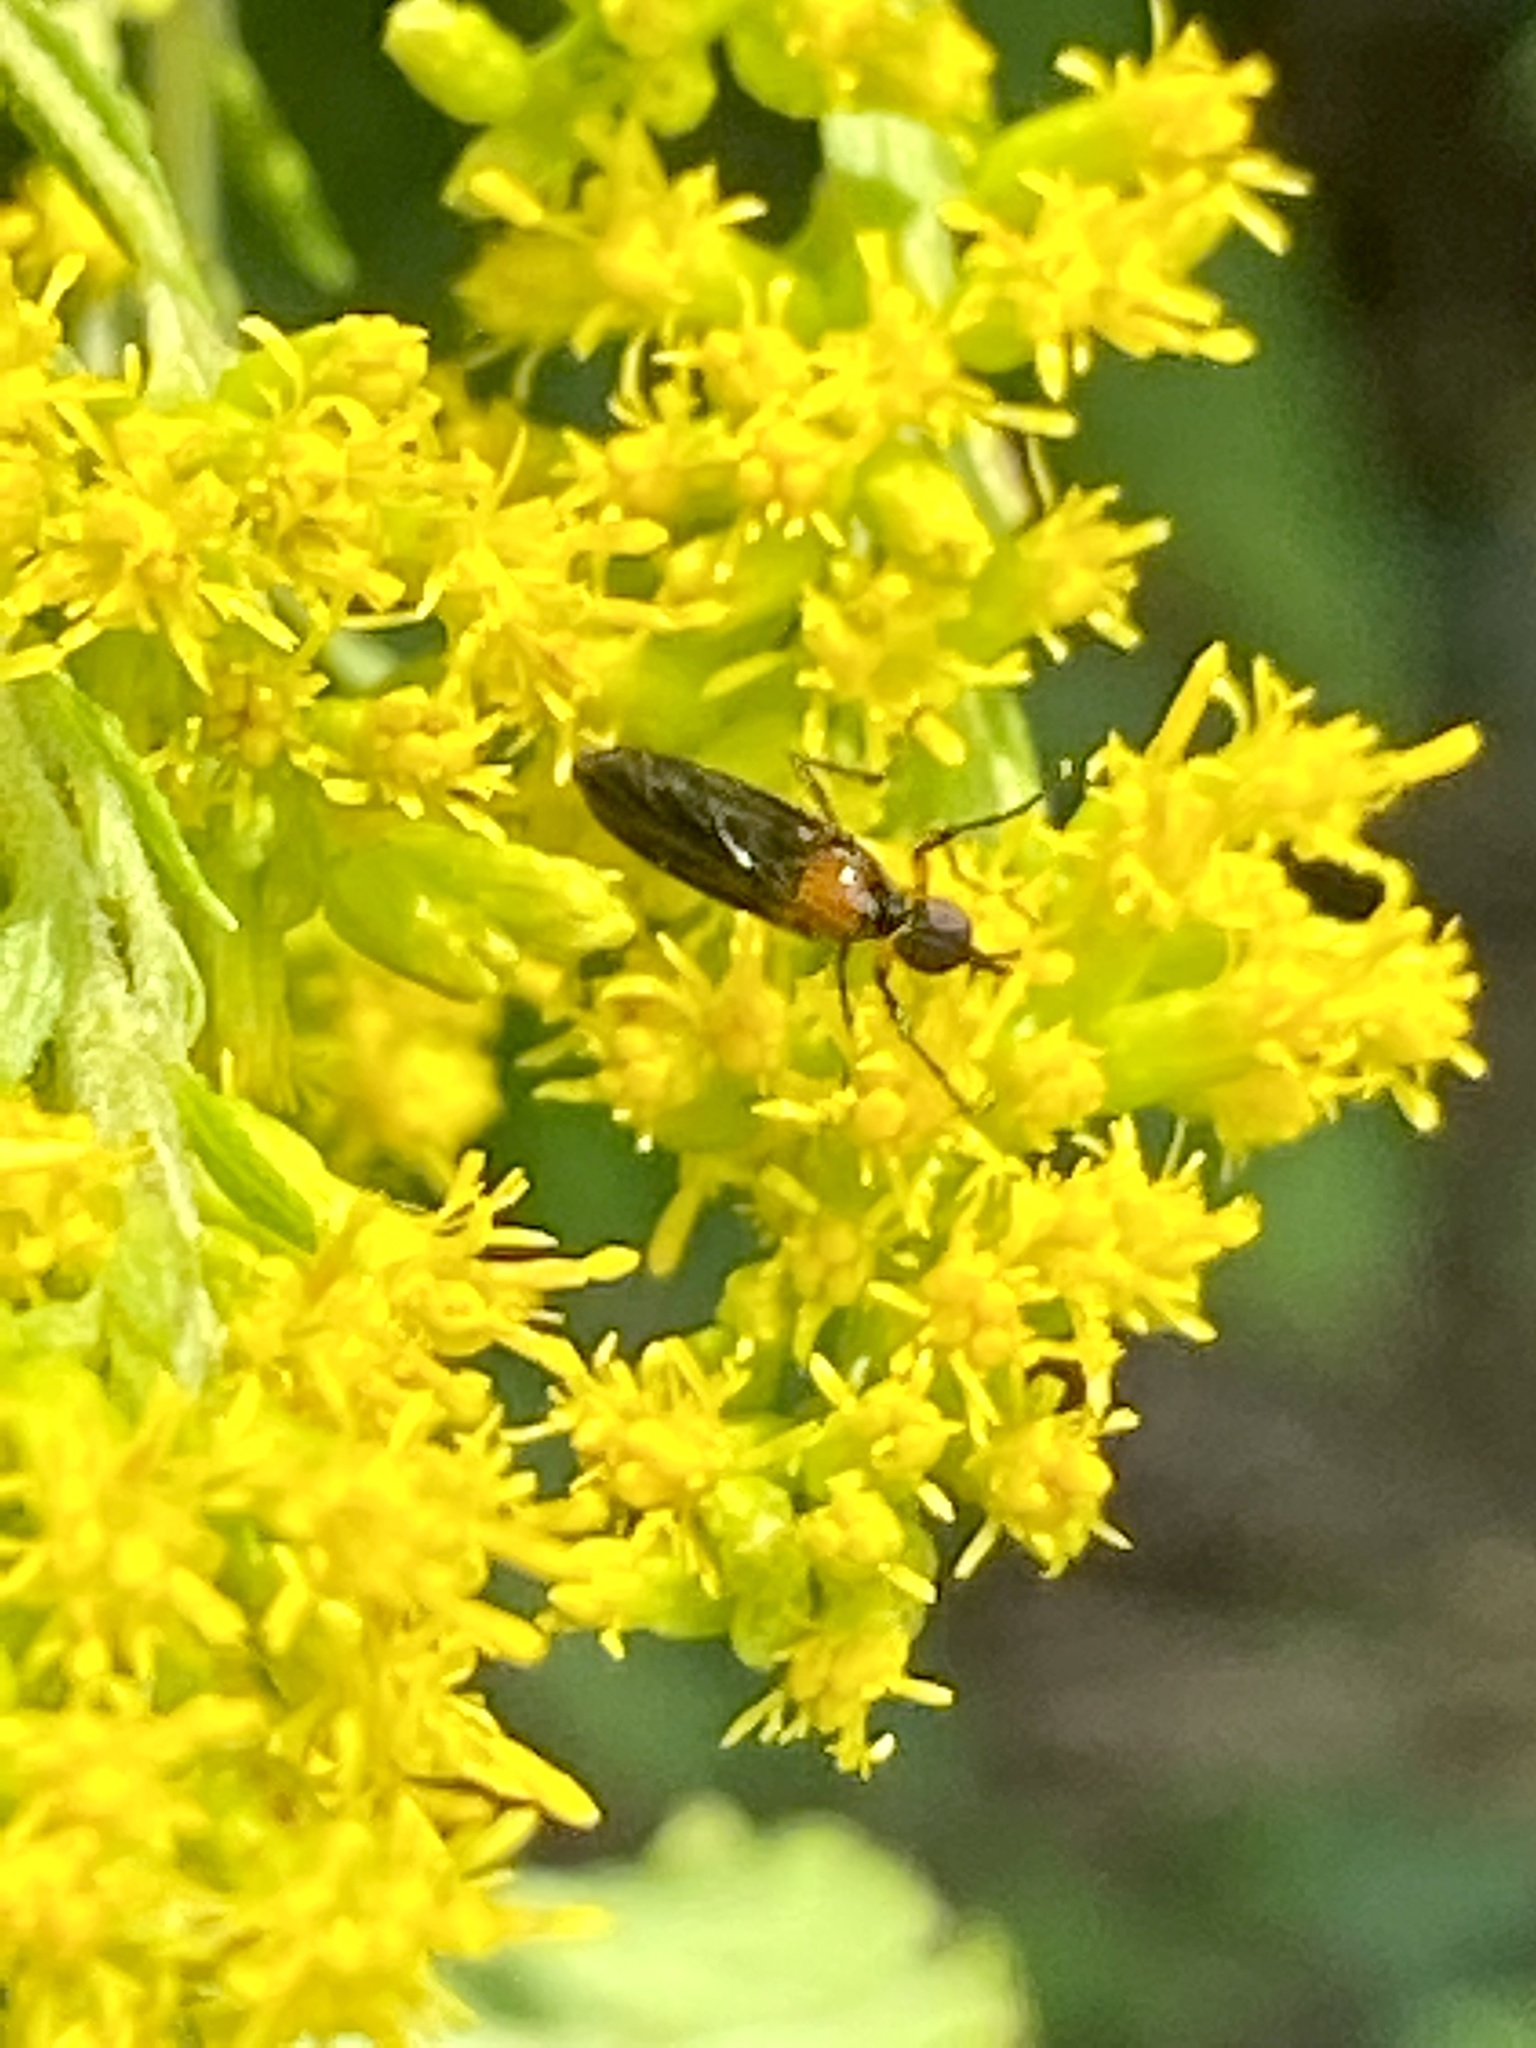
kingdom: Animalia
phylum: Arthropoda
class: Insecta
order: Diptera
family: Bibionidae
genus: Dilophus
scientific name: Dilophus spinipes
